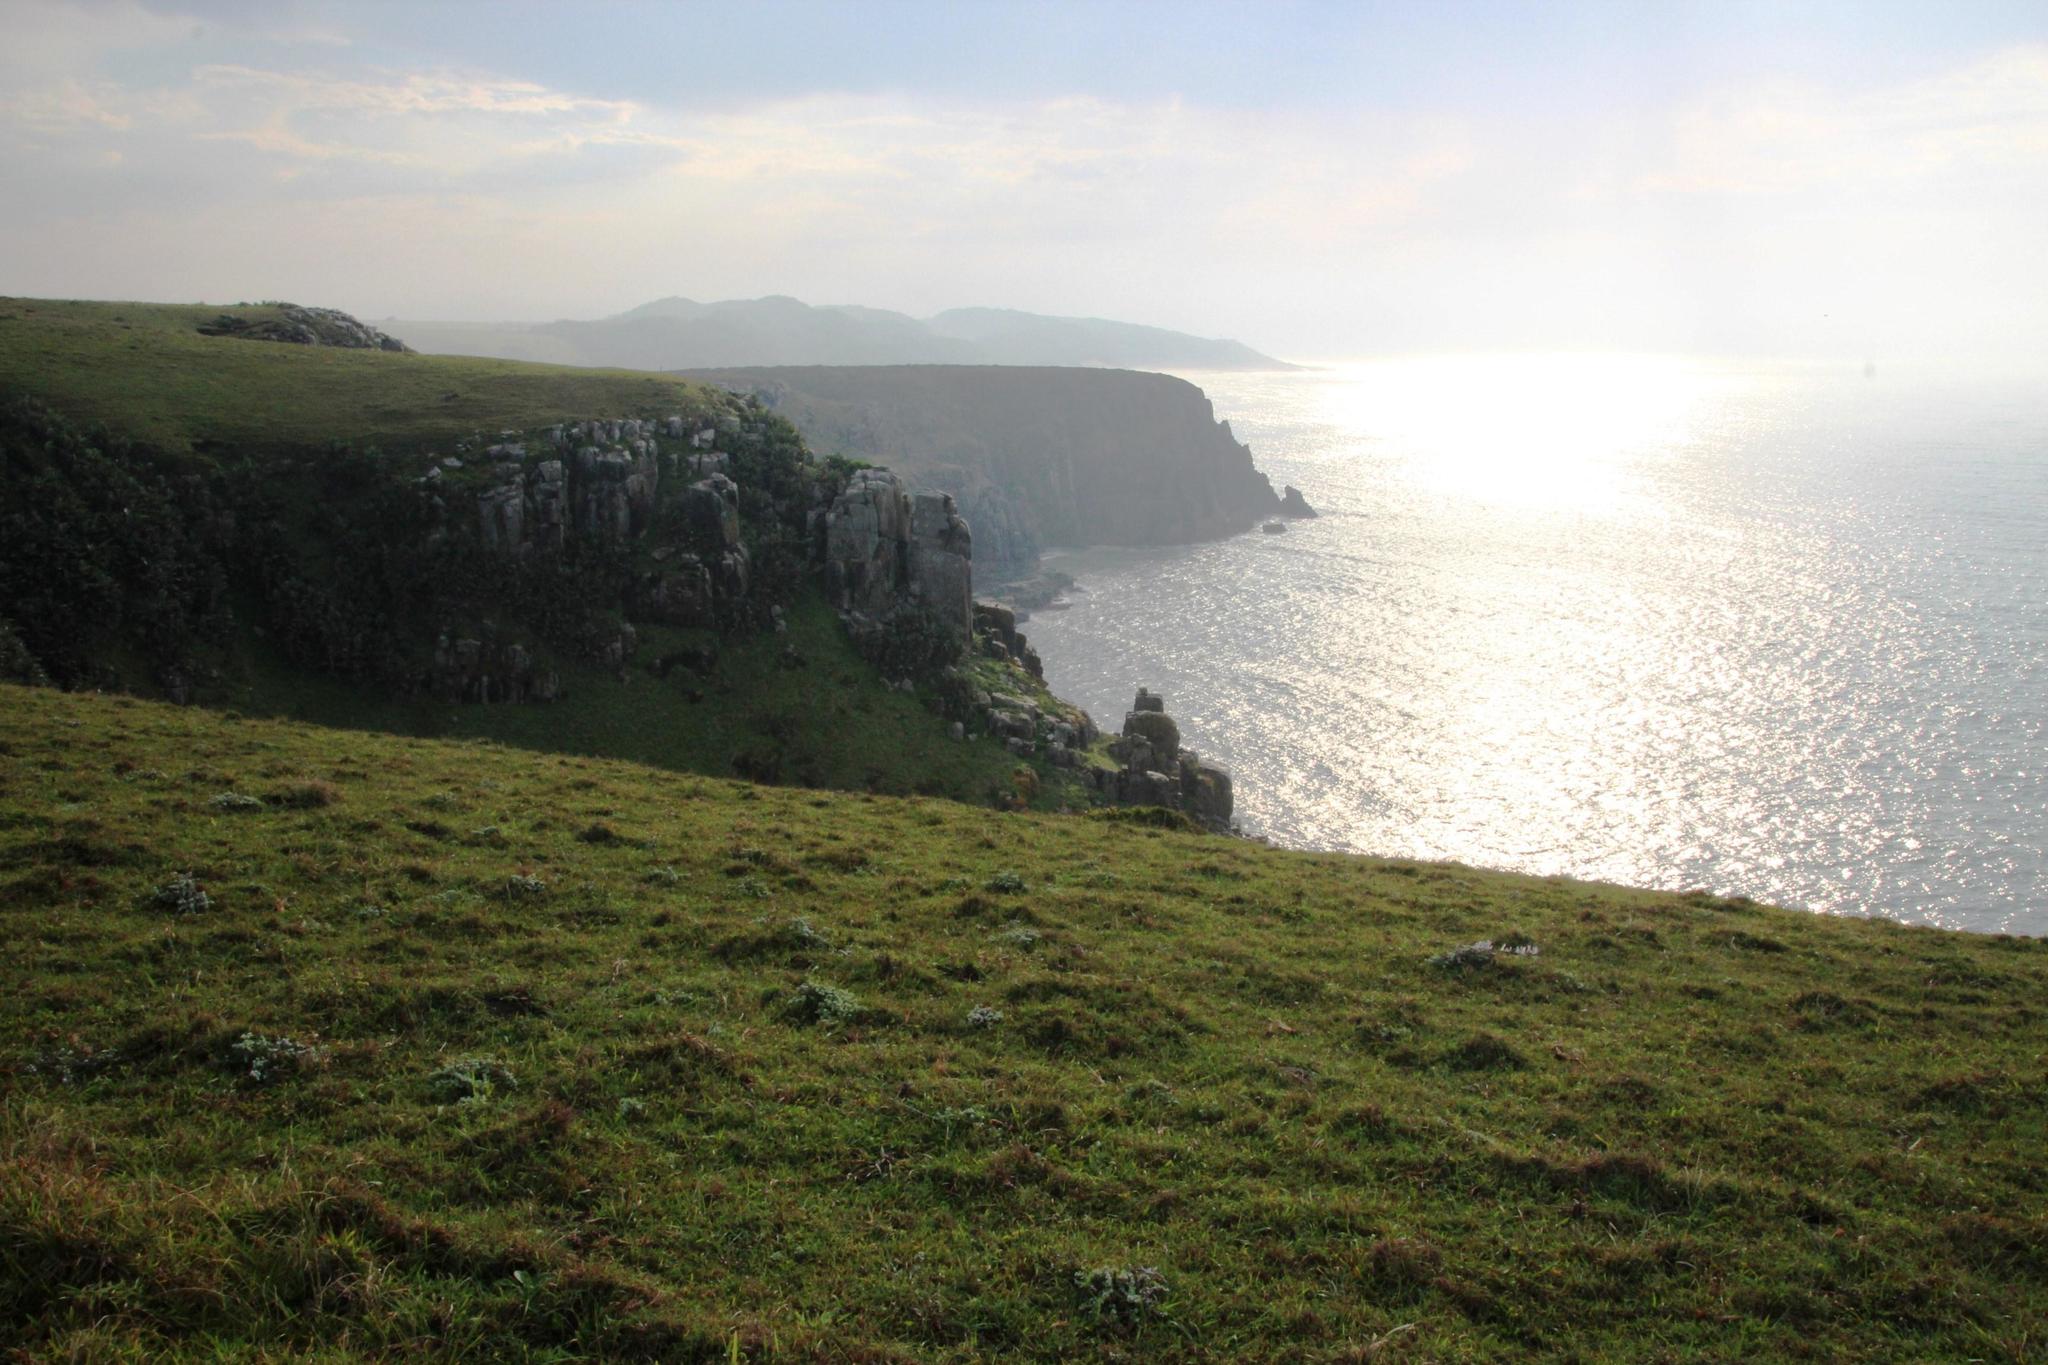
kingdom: Plantae
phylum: Tracheophyta
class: Liliopsida
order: Poales
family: Poaceae
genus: Stenotaphrum
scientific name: Stenotaphrum secundatum
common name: St. augustine grass
